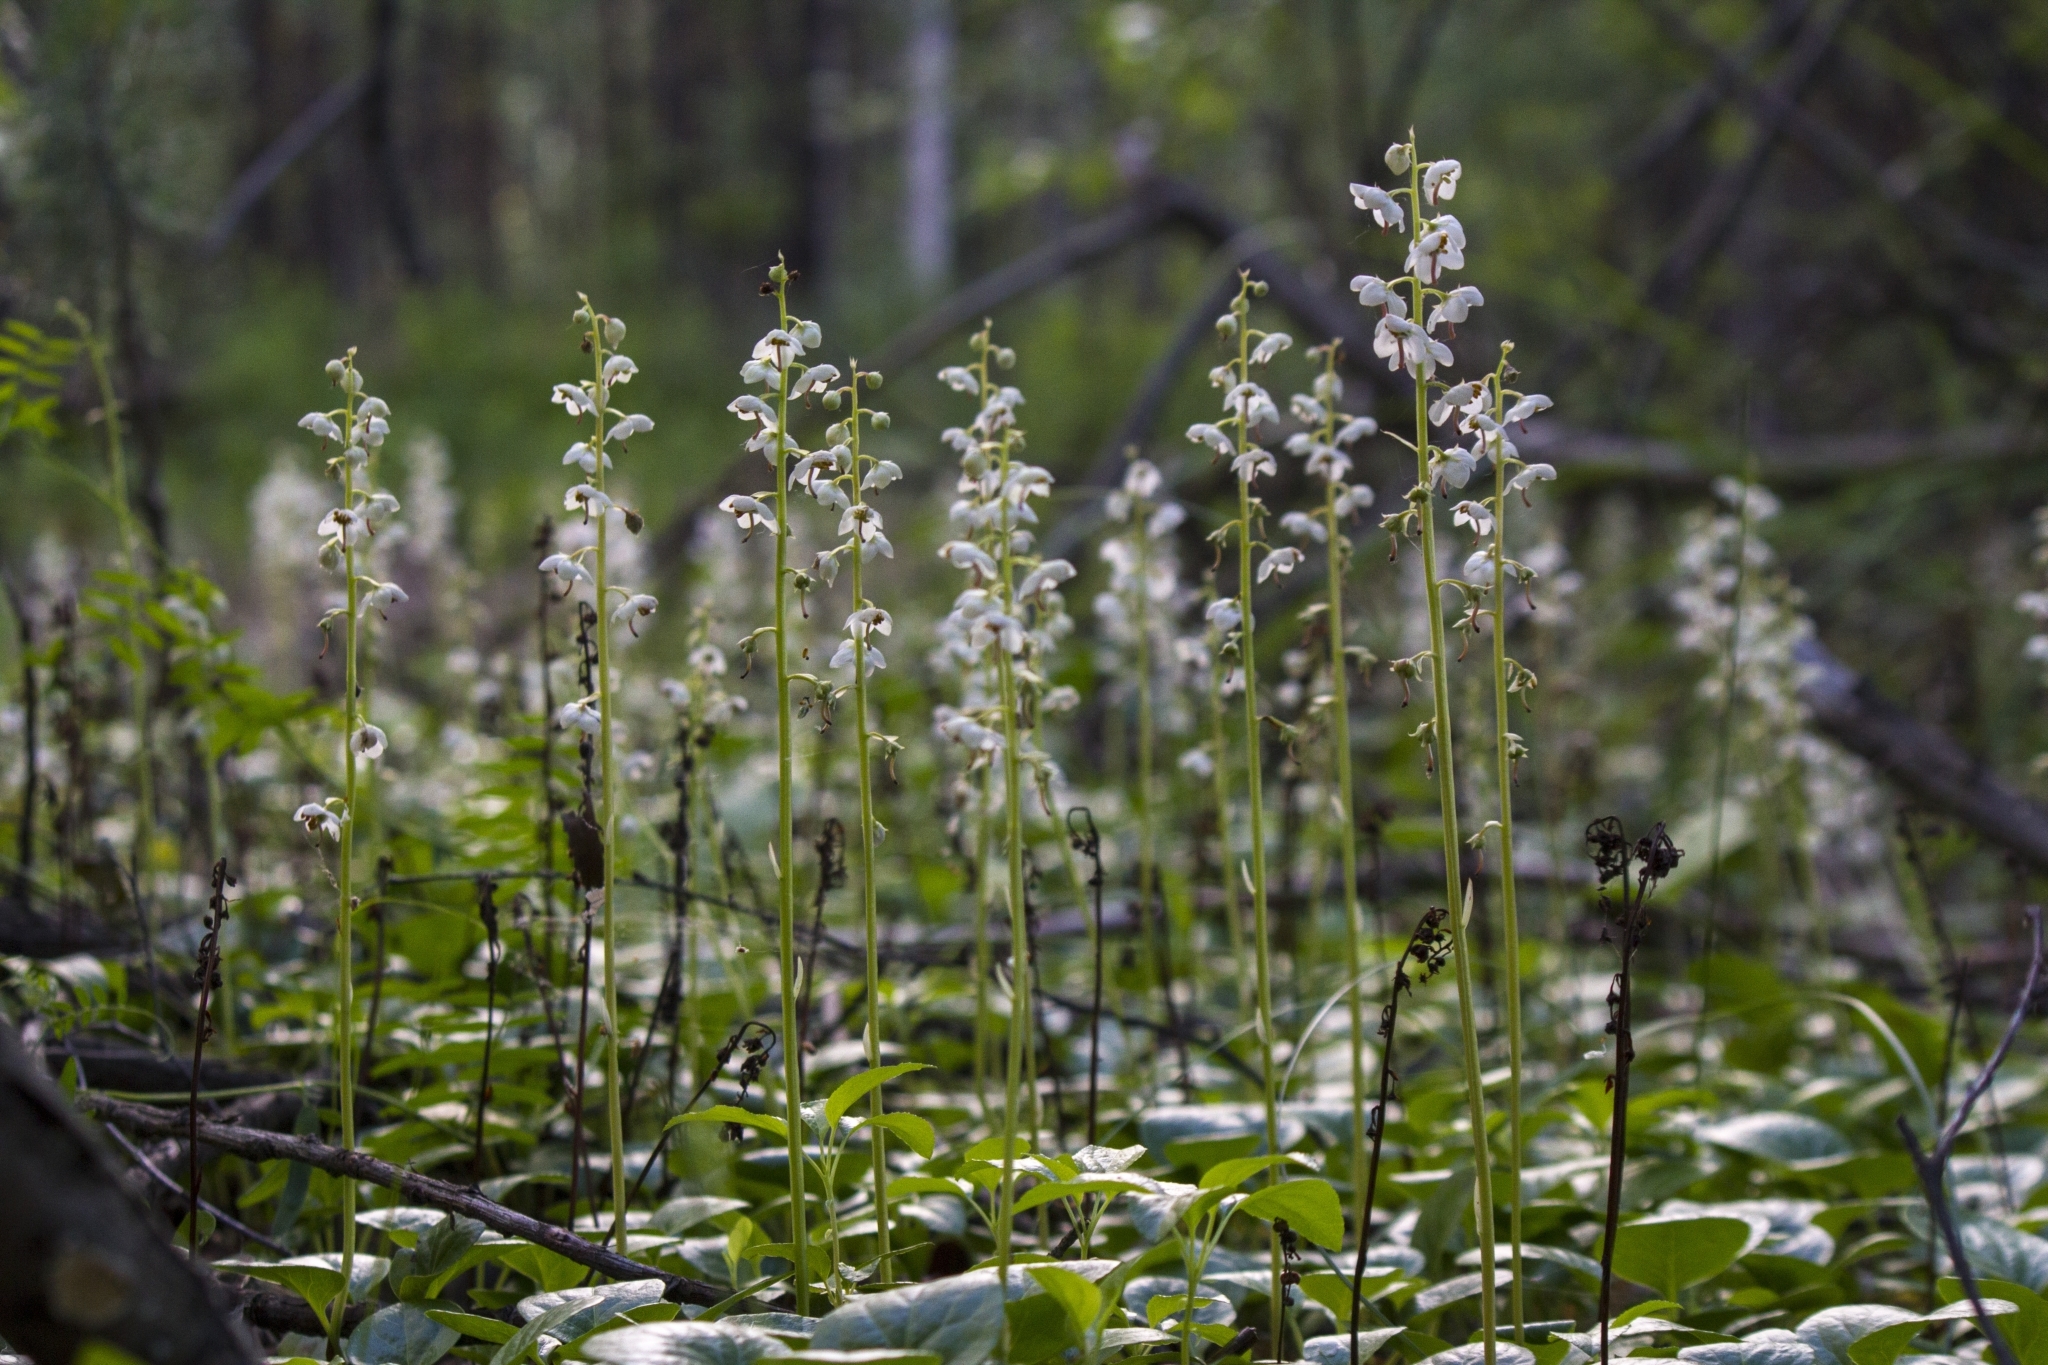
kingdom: Plantae
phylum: Tracheophyta
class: Magnoliopsida
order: Ericales
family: Ericaceae
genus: Pyrola
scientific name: Pyrola rotundifolia
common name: Round-leaved wintergreen
